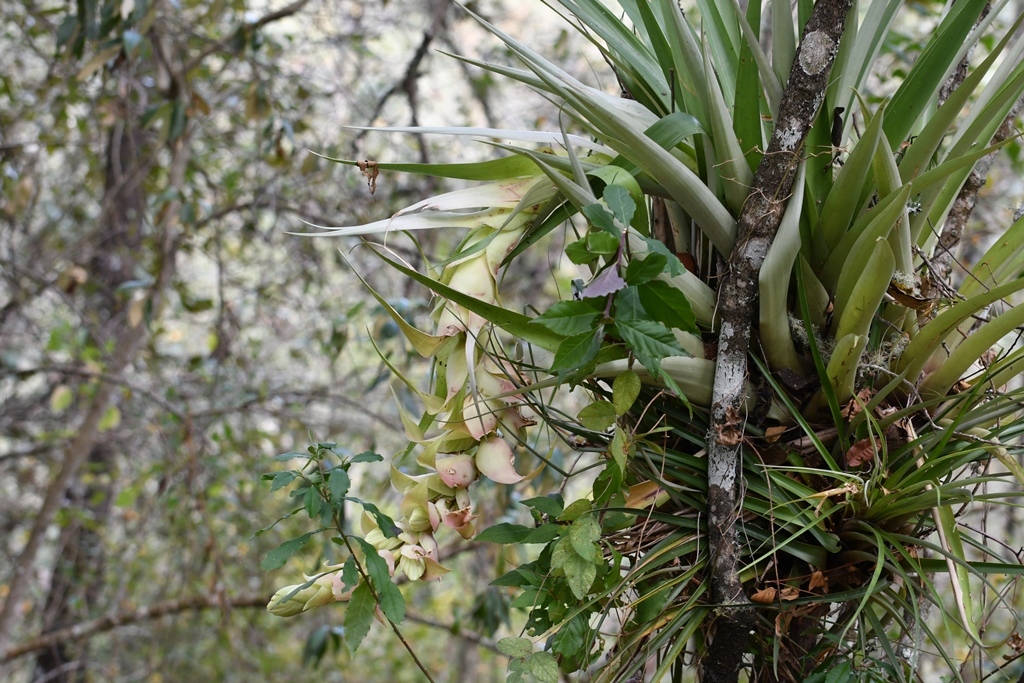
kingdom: Plantae
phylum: Tracheophyta
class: Liliopsida
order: Poales
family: Bromeliaceae
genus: Tillandsia
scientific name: Tillandsia eizii
